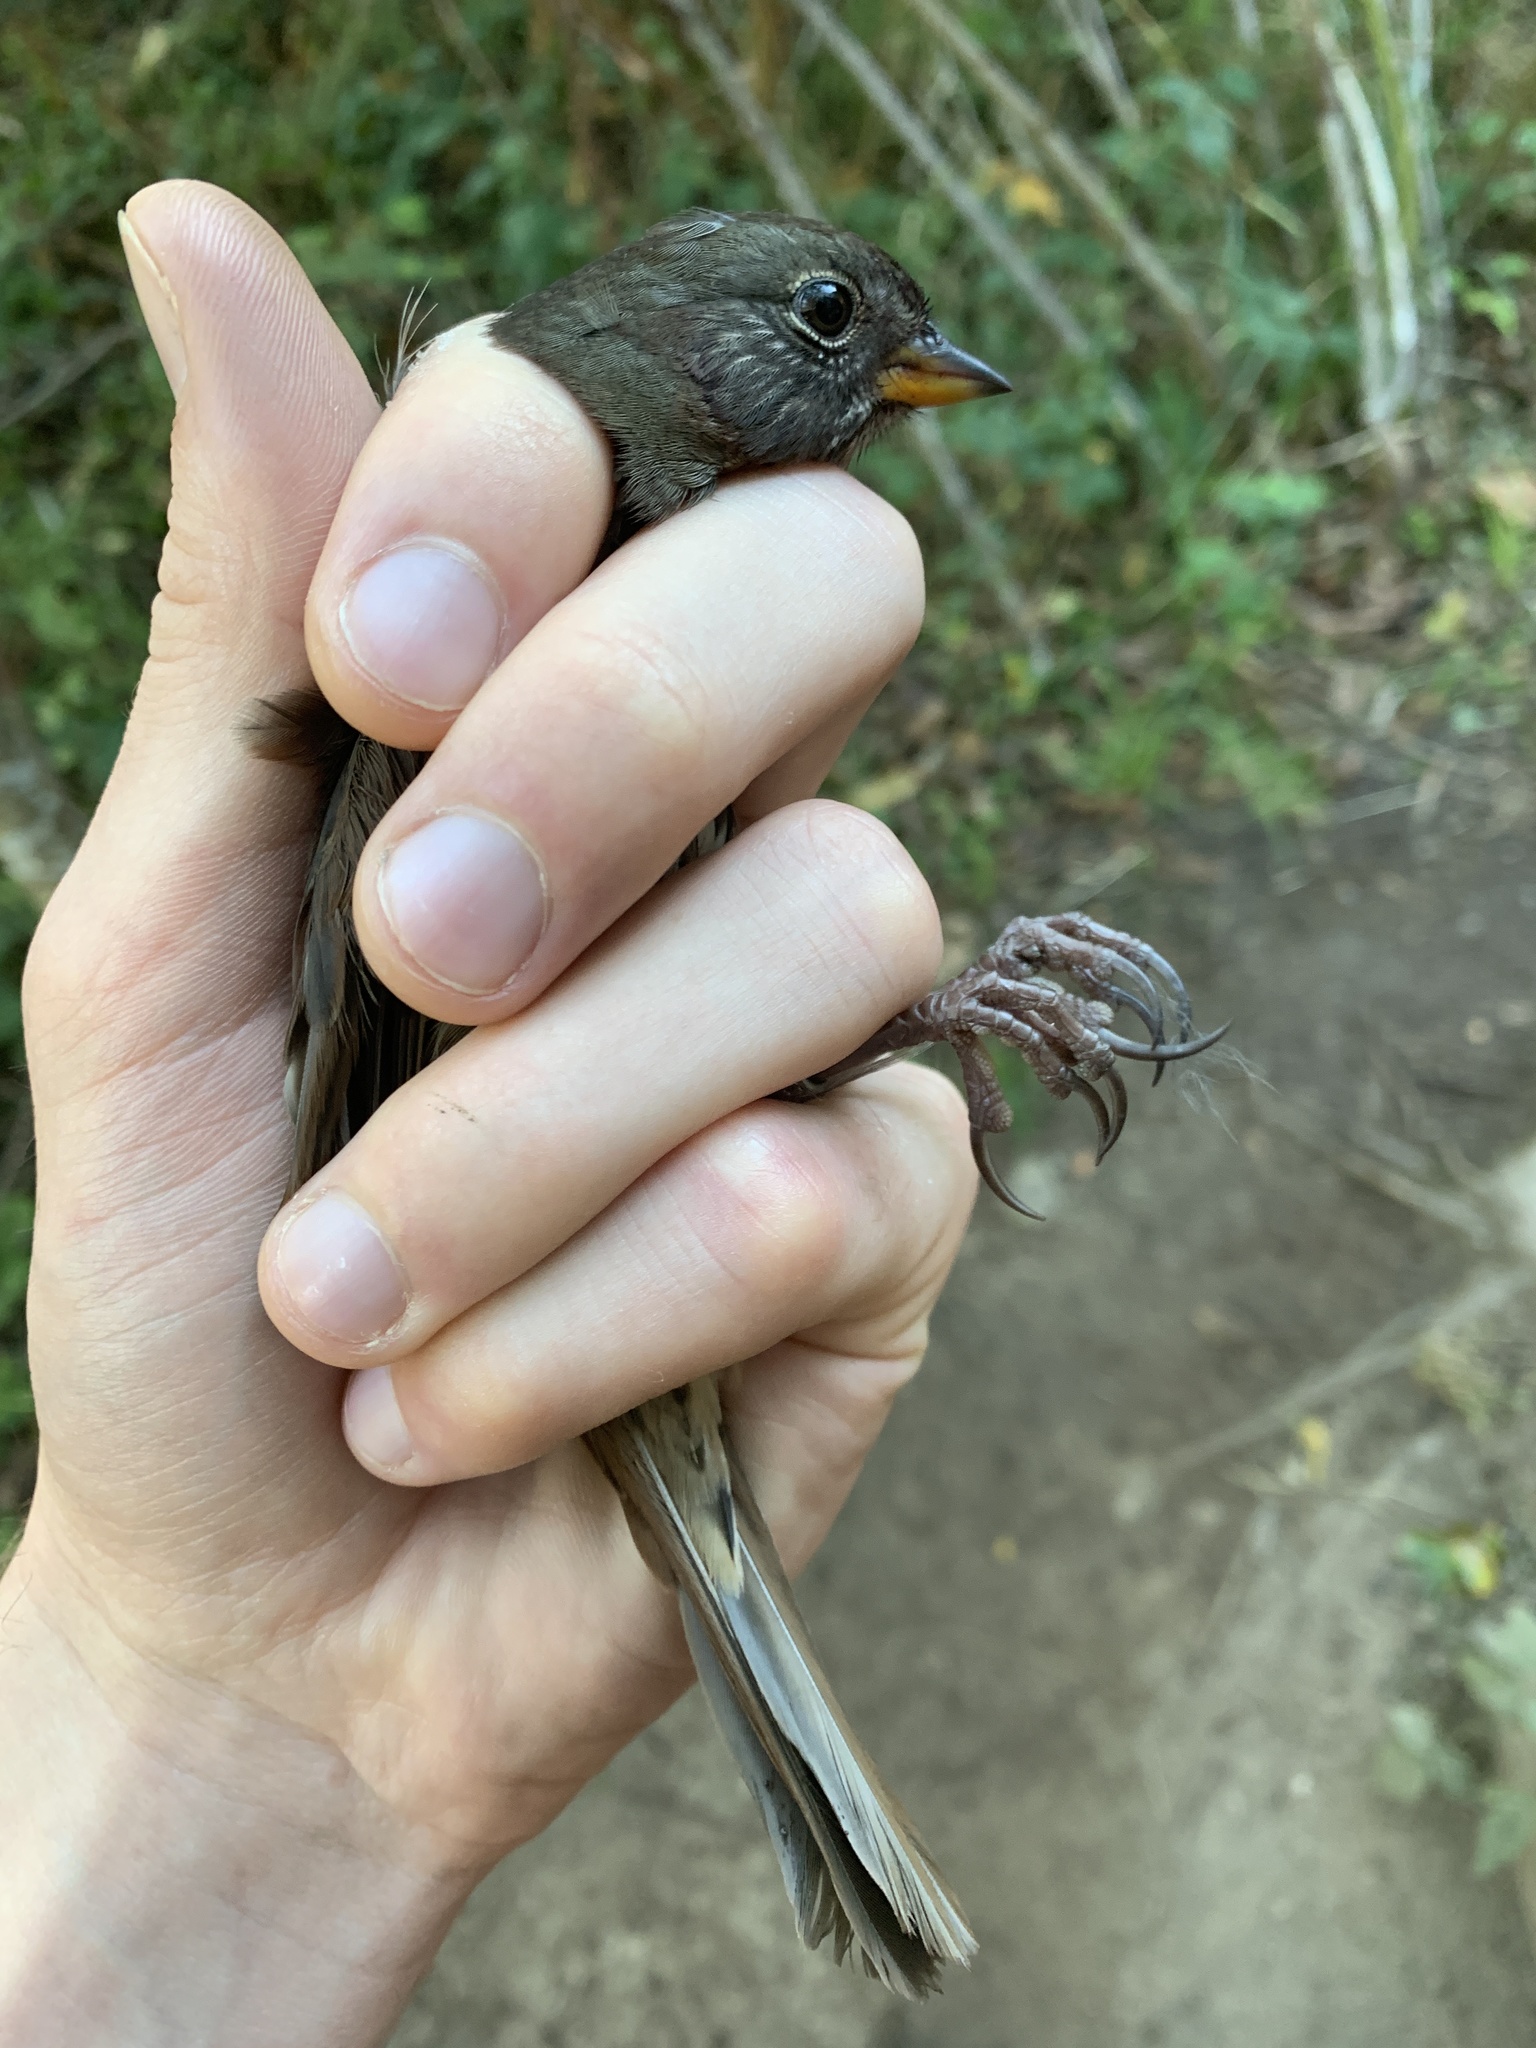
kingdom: Animalia
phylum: Chordata
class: Aves
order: Passeriformes
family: Passerellidae
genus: Passerella
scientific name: Passerella iliaca
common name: Fox sparrow
